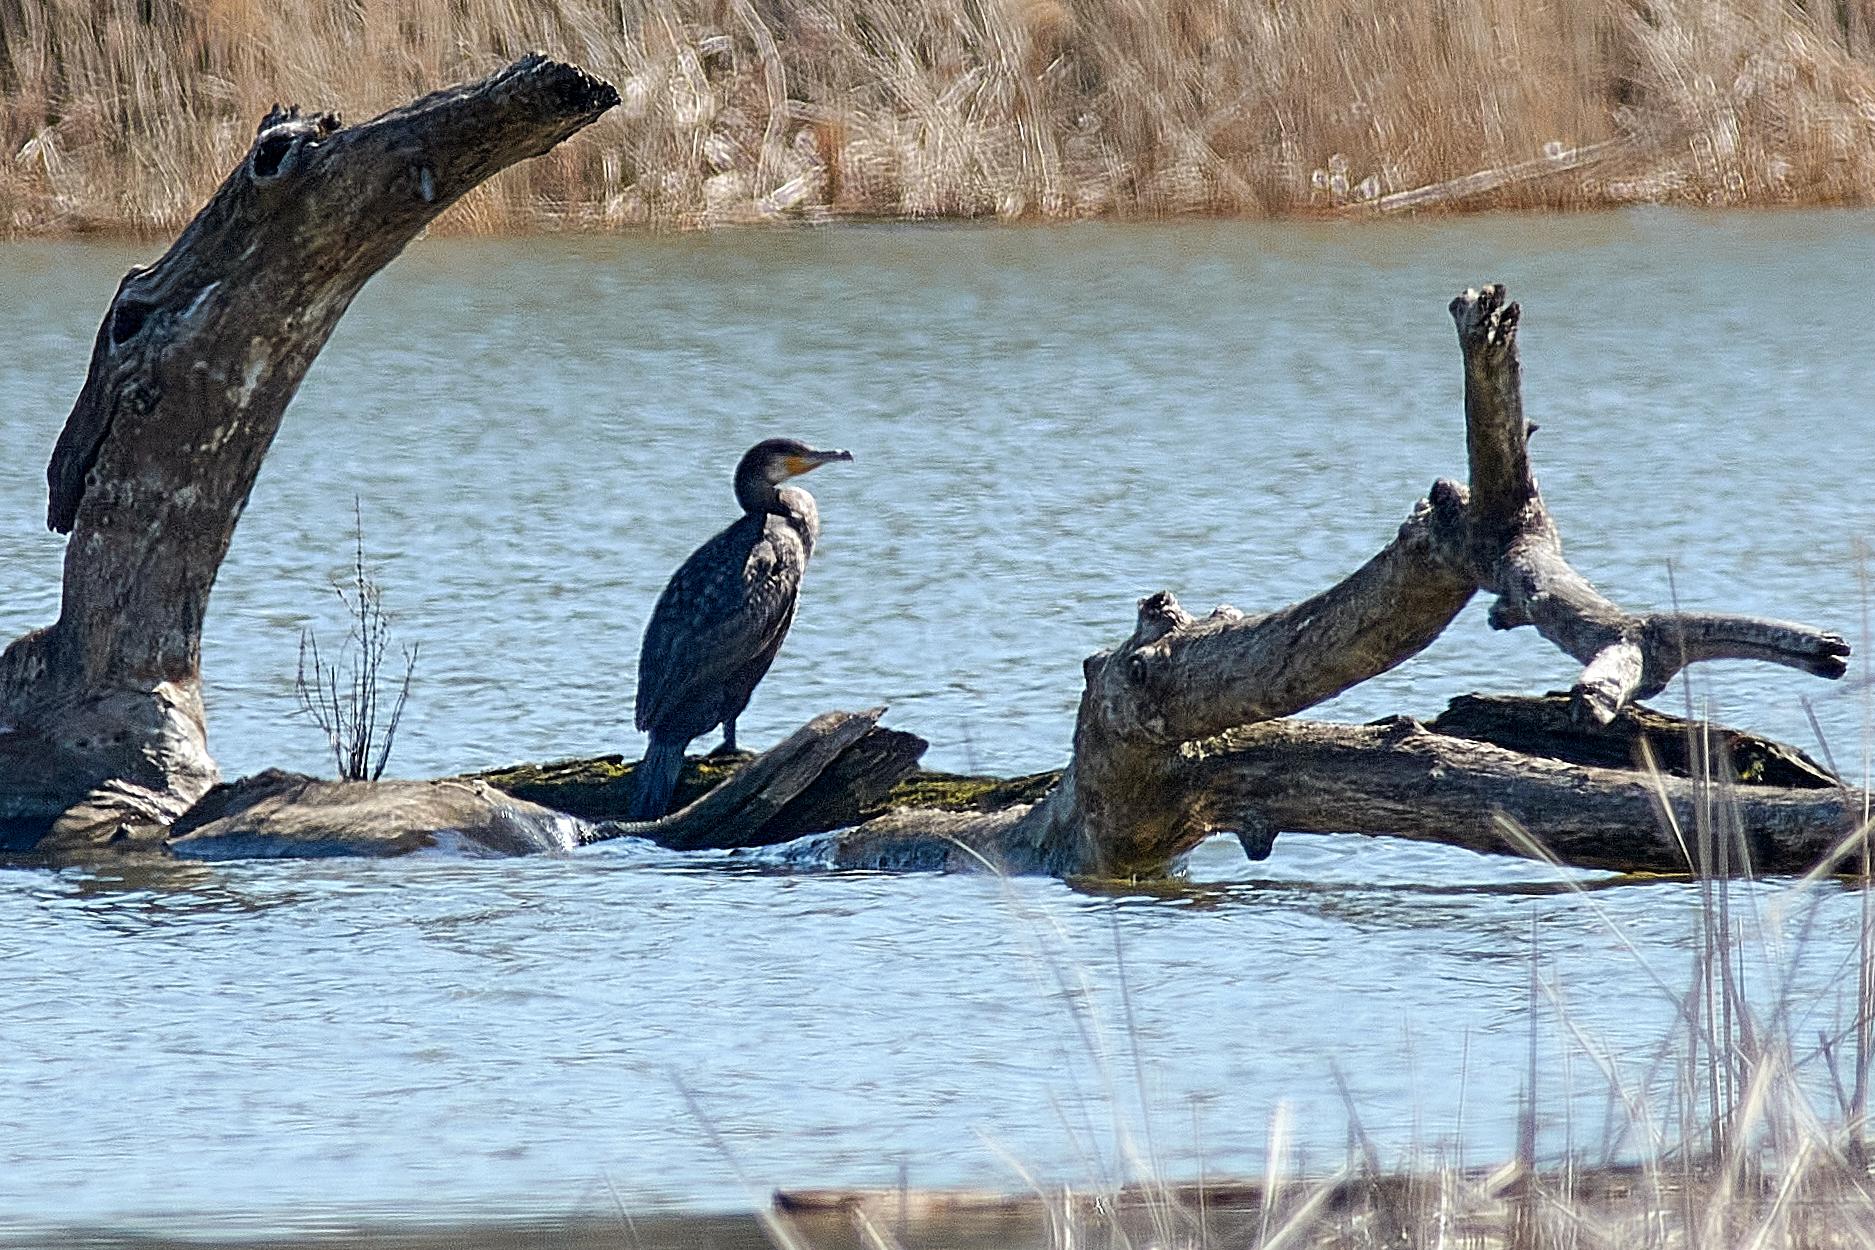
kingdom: Animalia
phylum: Chordata
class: Aves
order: Suliformes
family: Phalacrocoracidae
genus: Phalacrocorax
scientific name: Phalacrocorax carbo
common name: Great cormorant
